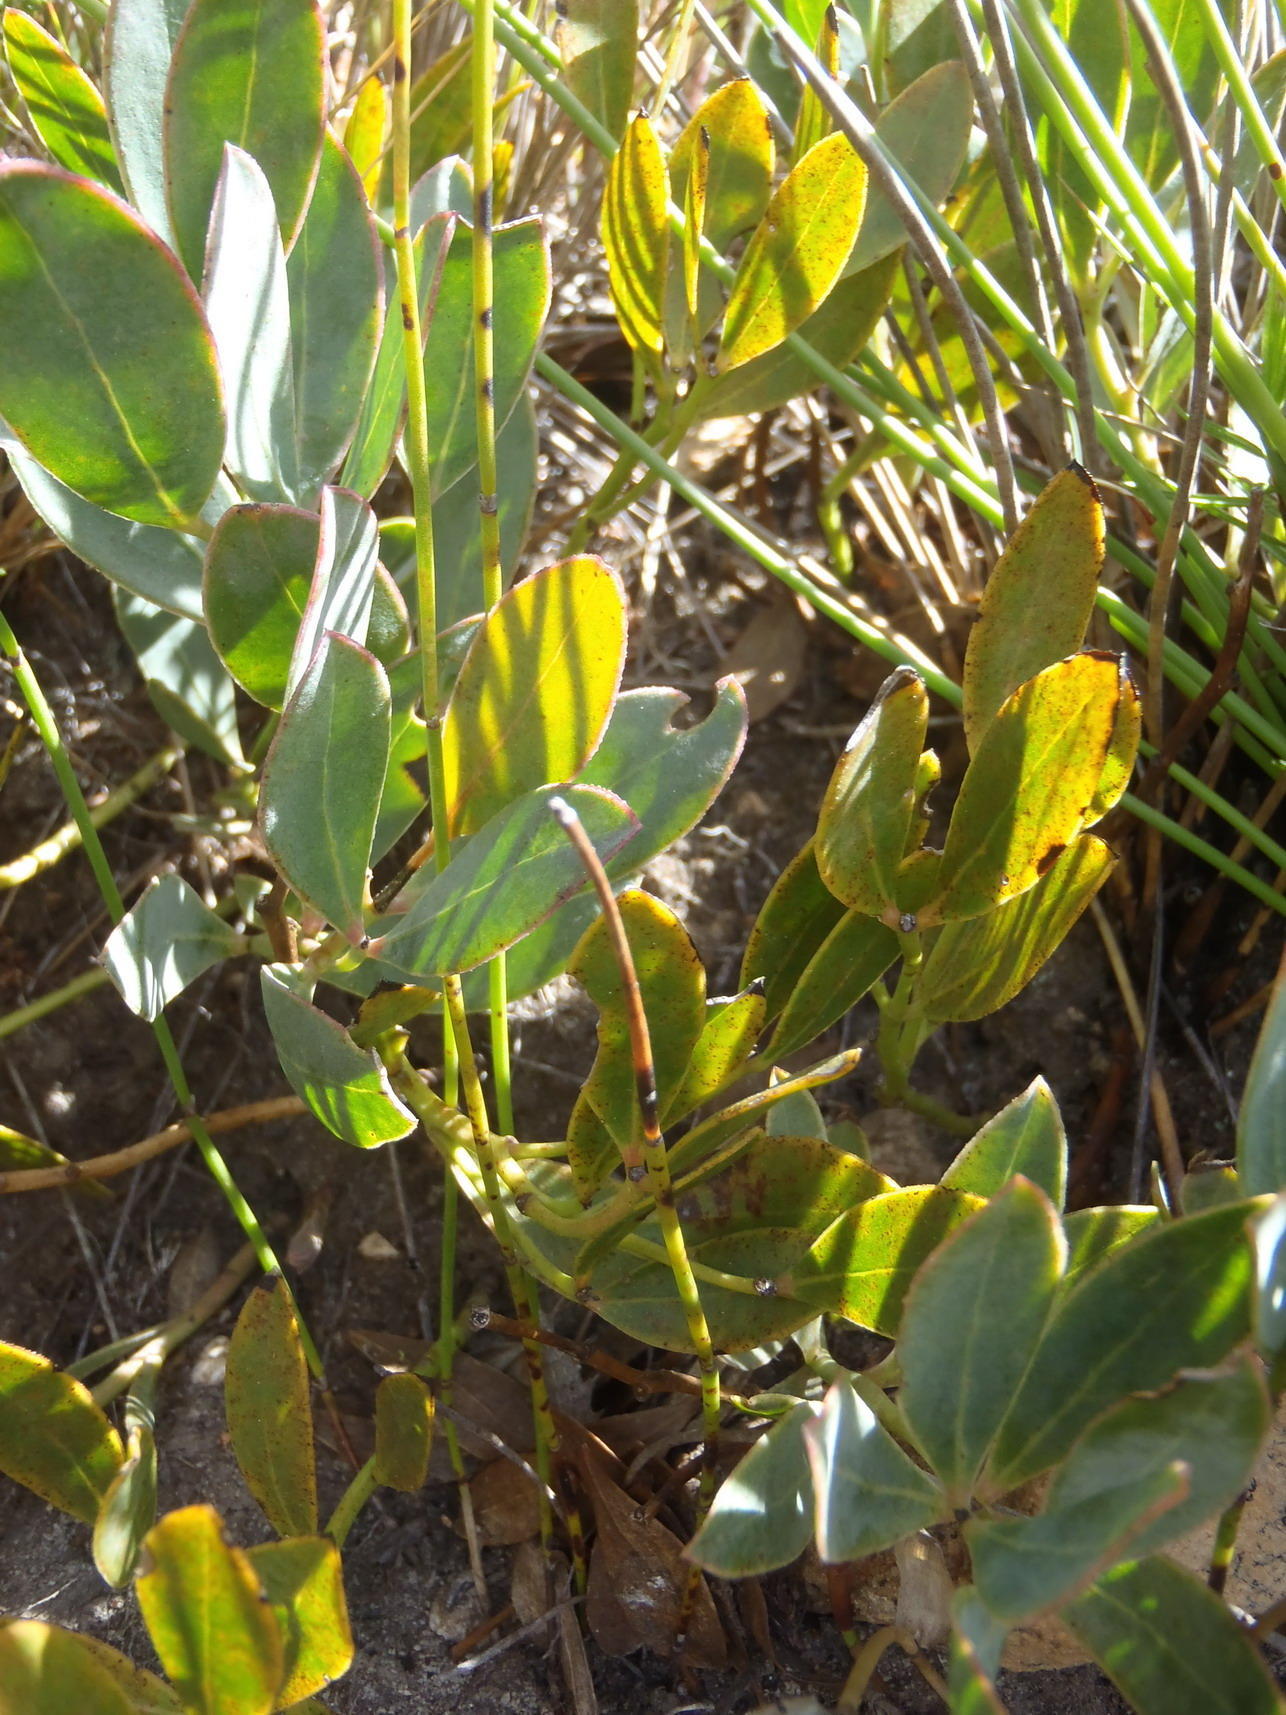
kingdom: Plantae
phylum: Tracheophyta
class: Magnoliopsida
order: Fabales
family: Fabaceae
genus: Rafnia
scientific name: Rafnia rostrata
